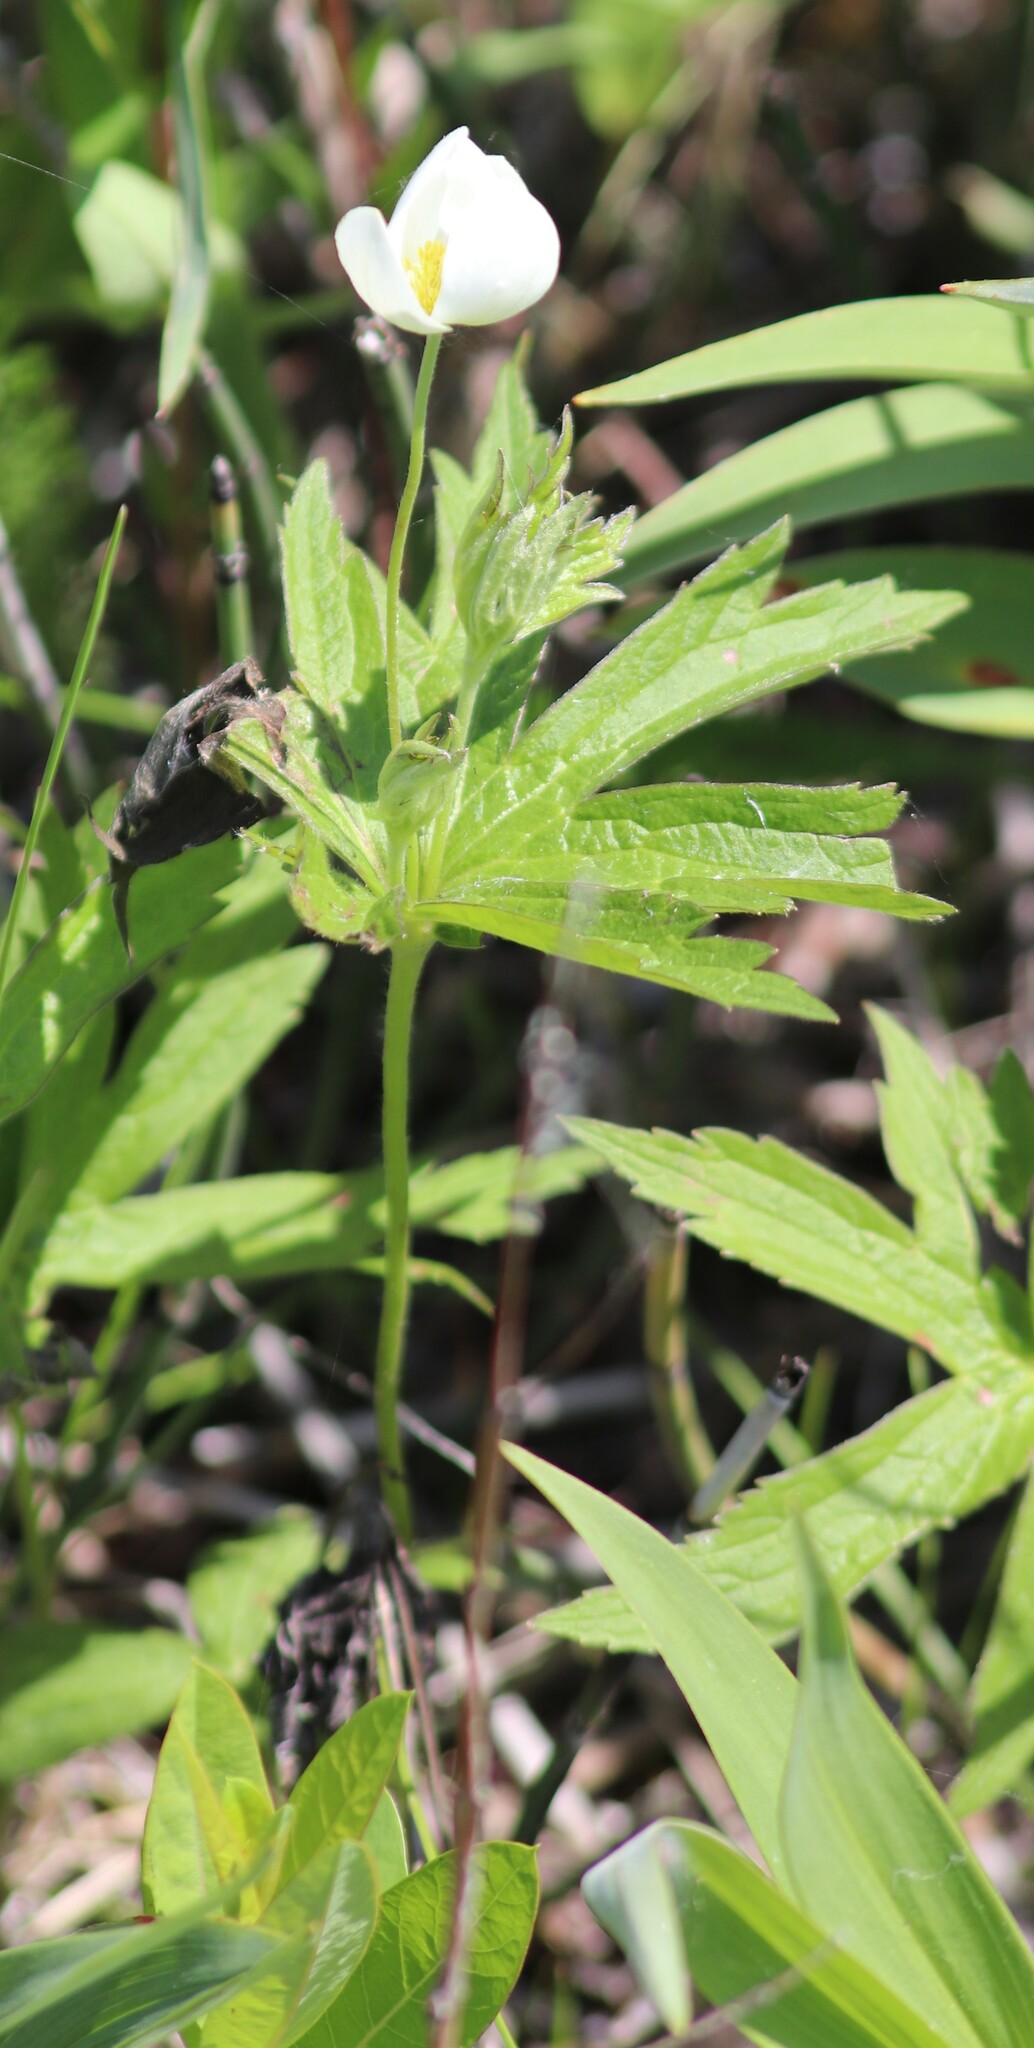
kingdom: Plantae
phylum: Tracheophyta
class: Magnoliopsida
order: Ranunculales
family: Ranunculaceae
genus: Anemonastrum
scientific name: Anemonastrum canadense
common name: Canada anemone
